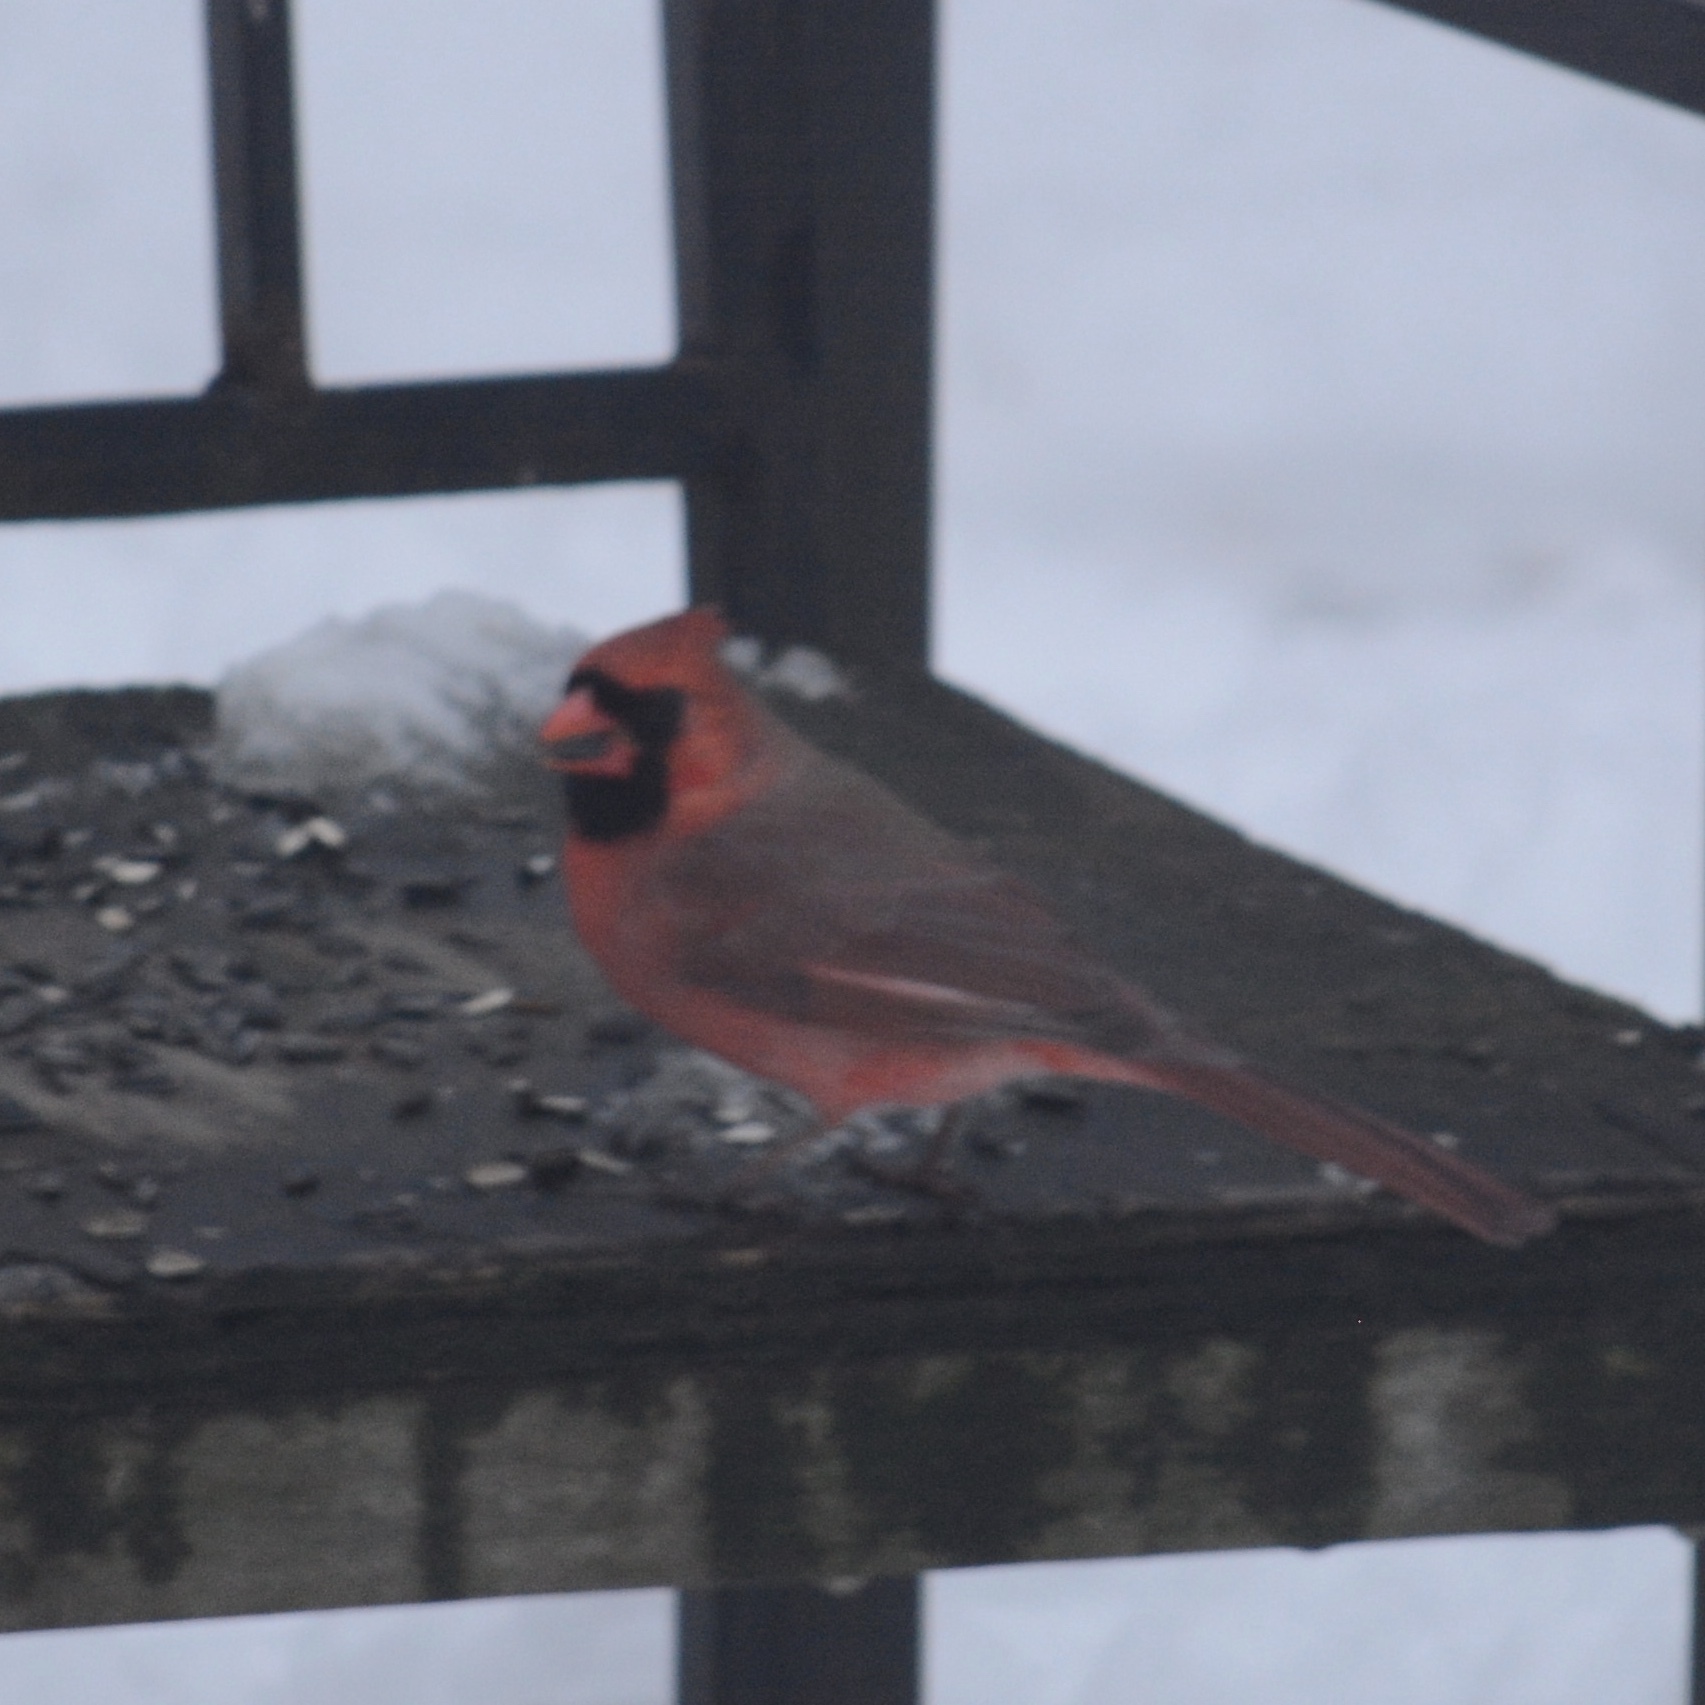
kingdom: Animalia
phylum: Chordata
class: Aves
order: Passeriformes
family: Cardinalidae
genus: Cardinalis
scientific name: Cardinalis cardinalis
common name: Northern cardinal
